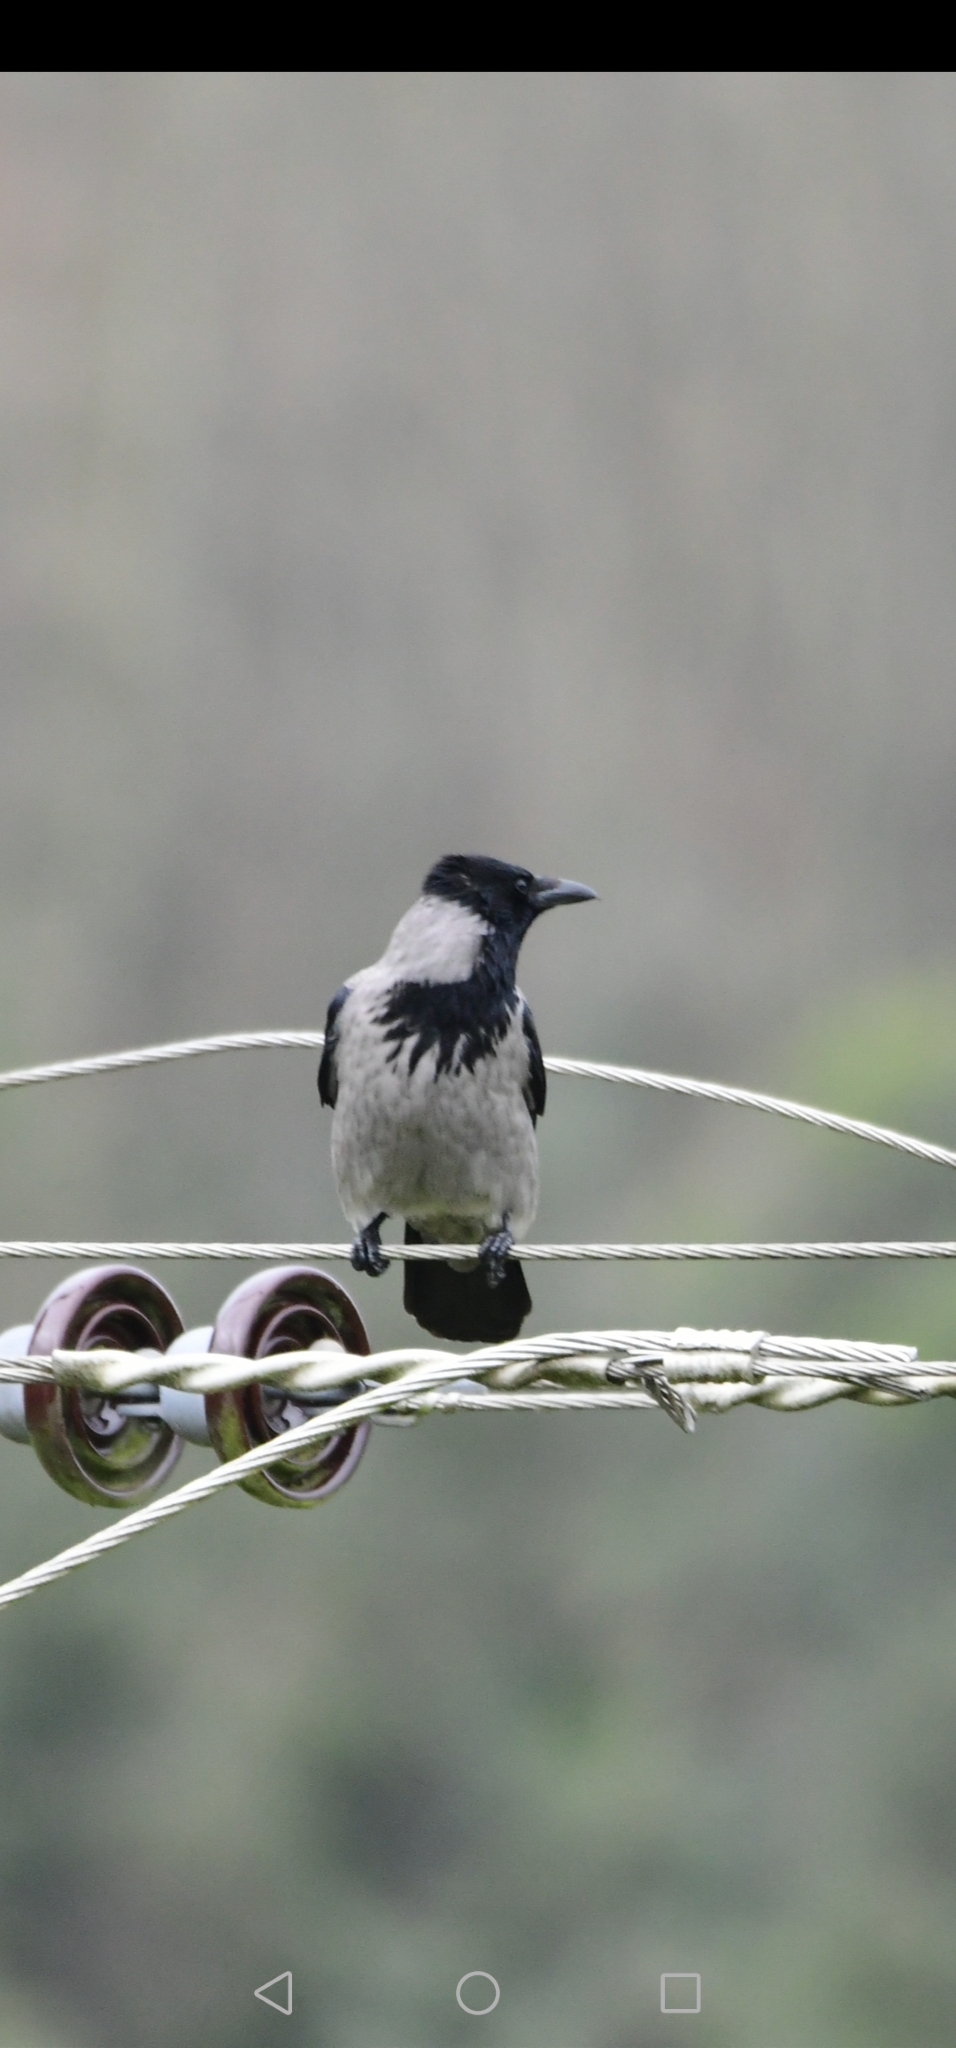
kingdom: Animalia
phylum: Chordata
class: Aves
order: Passeriformes
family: Corvidae
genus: Corvus
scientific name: Corvus cornix
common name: Hooded crow
